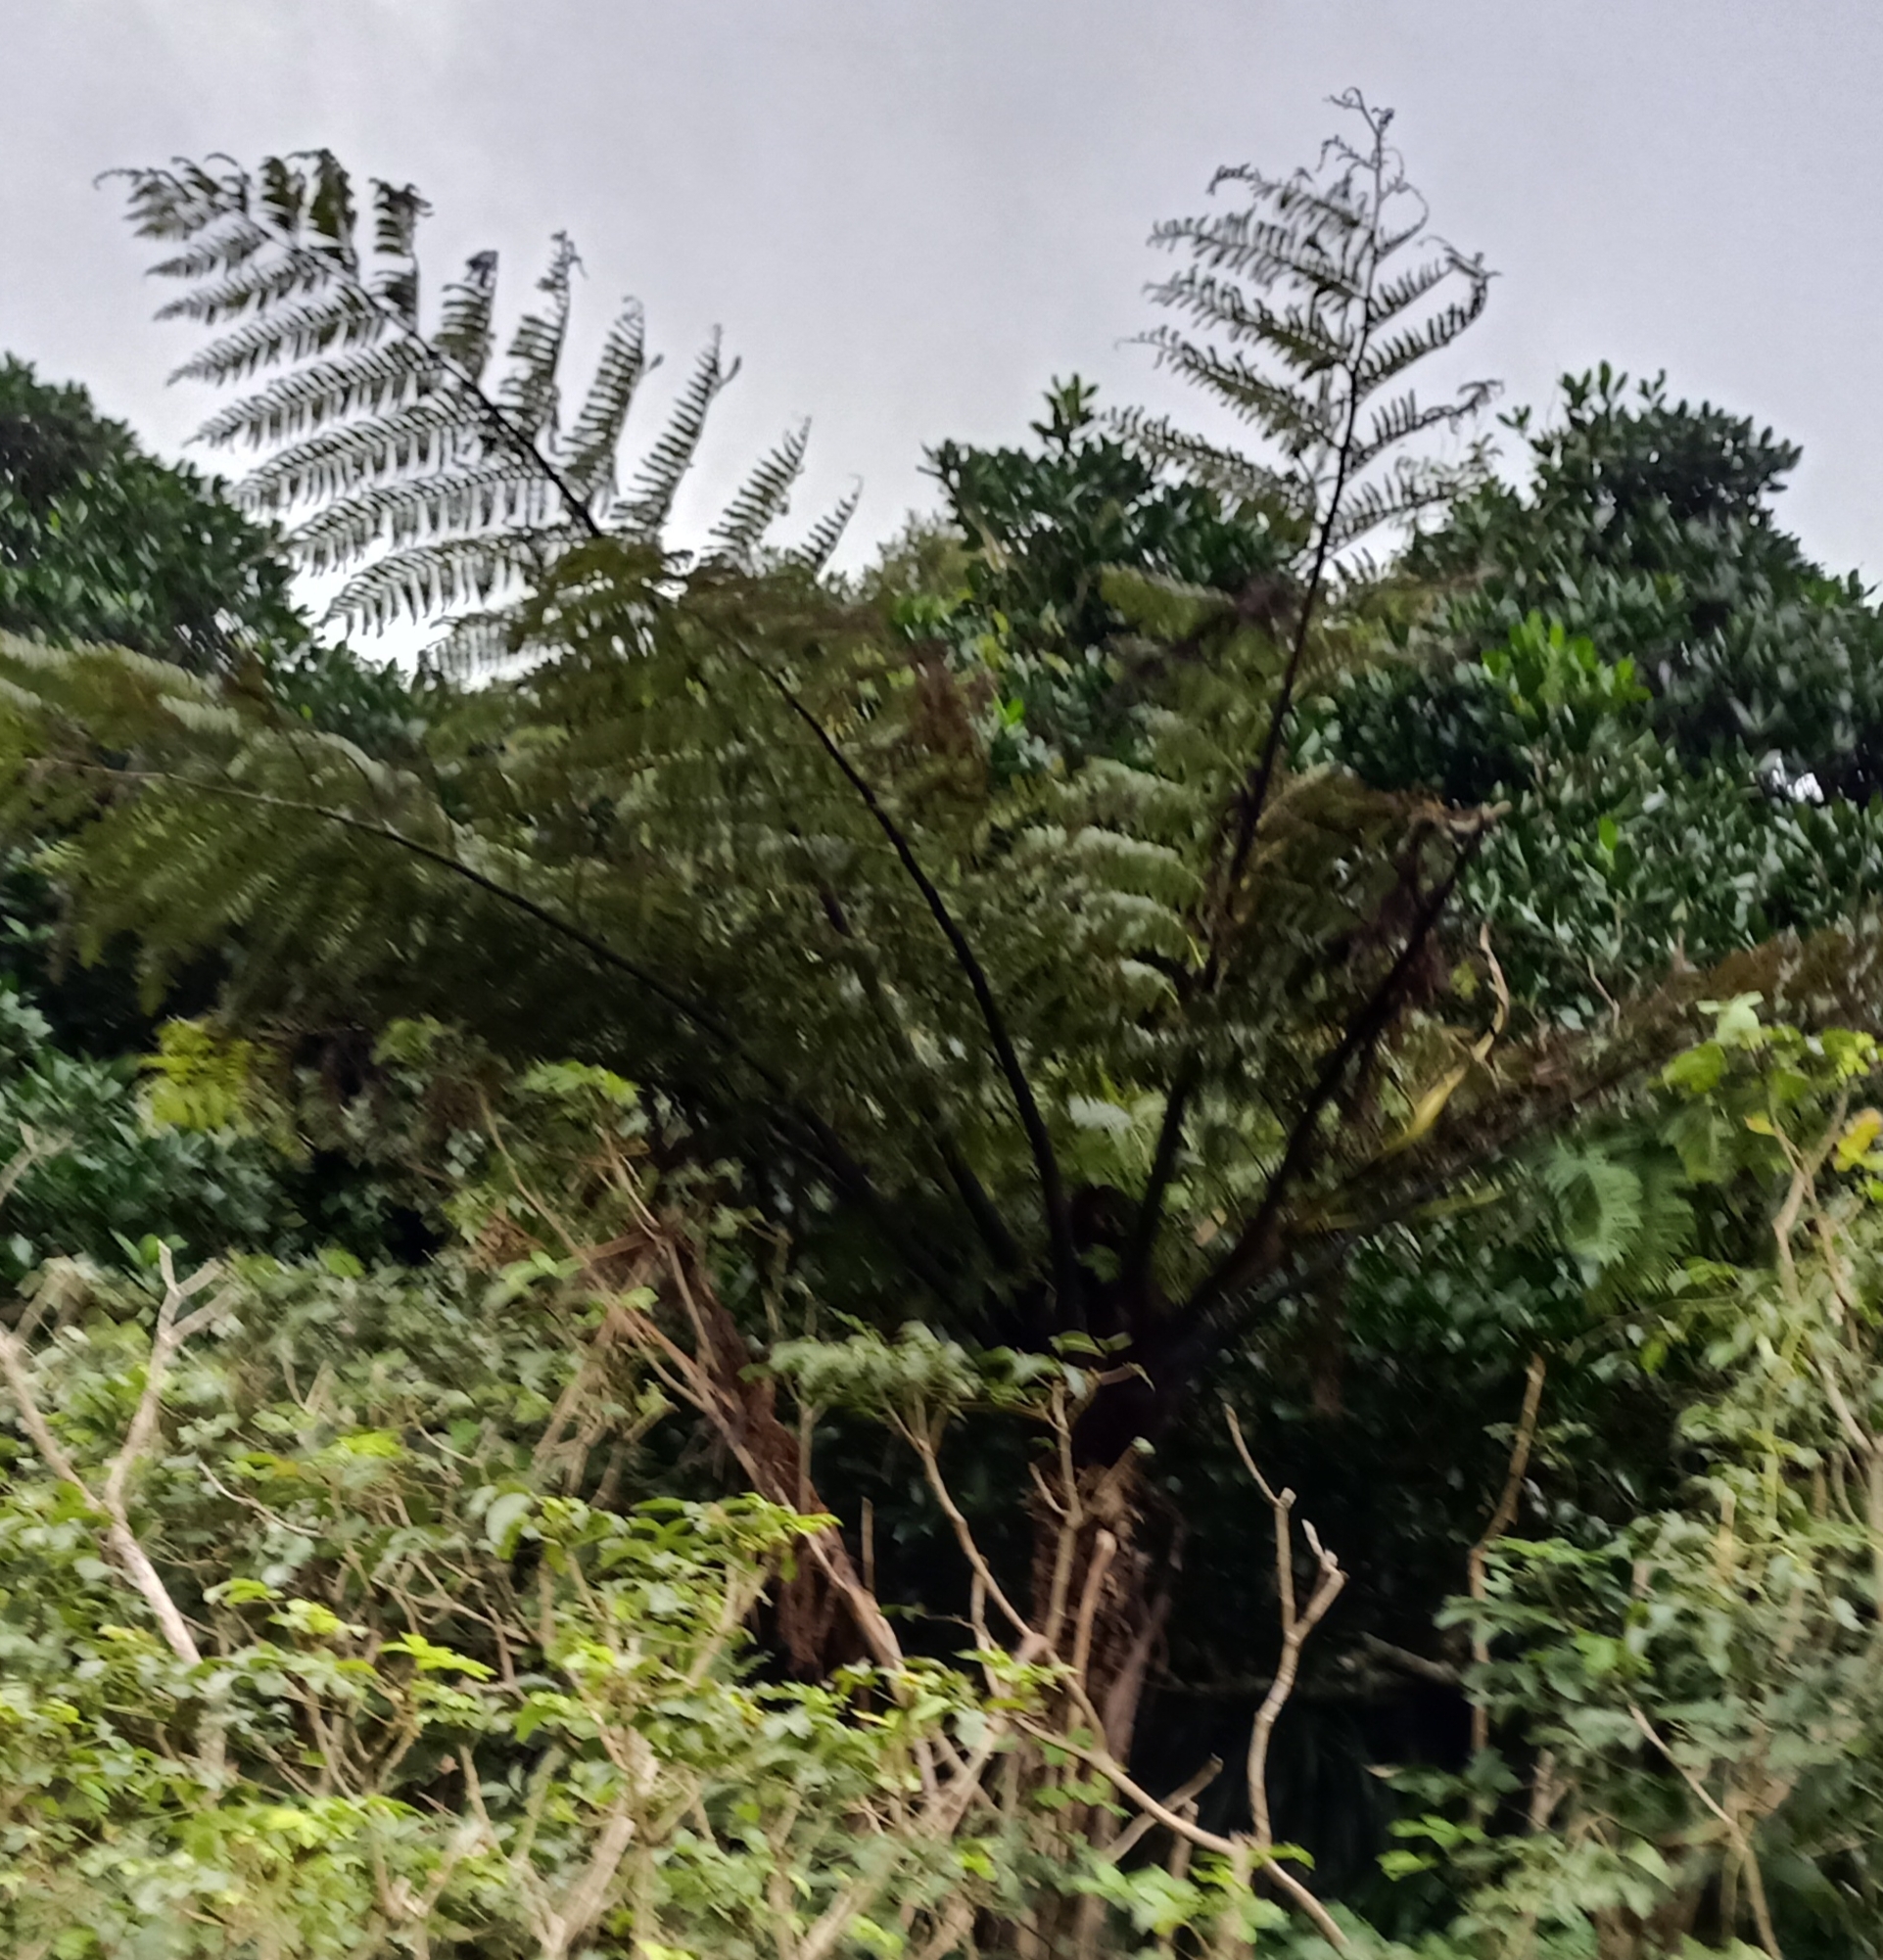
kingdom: Plantae
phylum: Tracheophyta
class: Polypodiopsida
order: Cyatheales
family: Cyatheaceae
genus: Sphaeropteris
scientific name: Sphaeropteris medullaris
